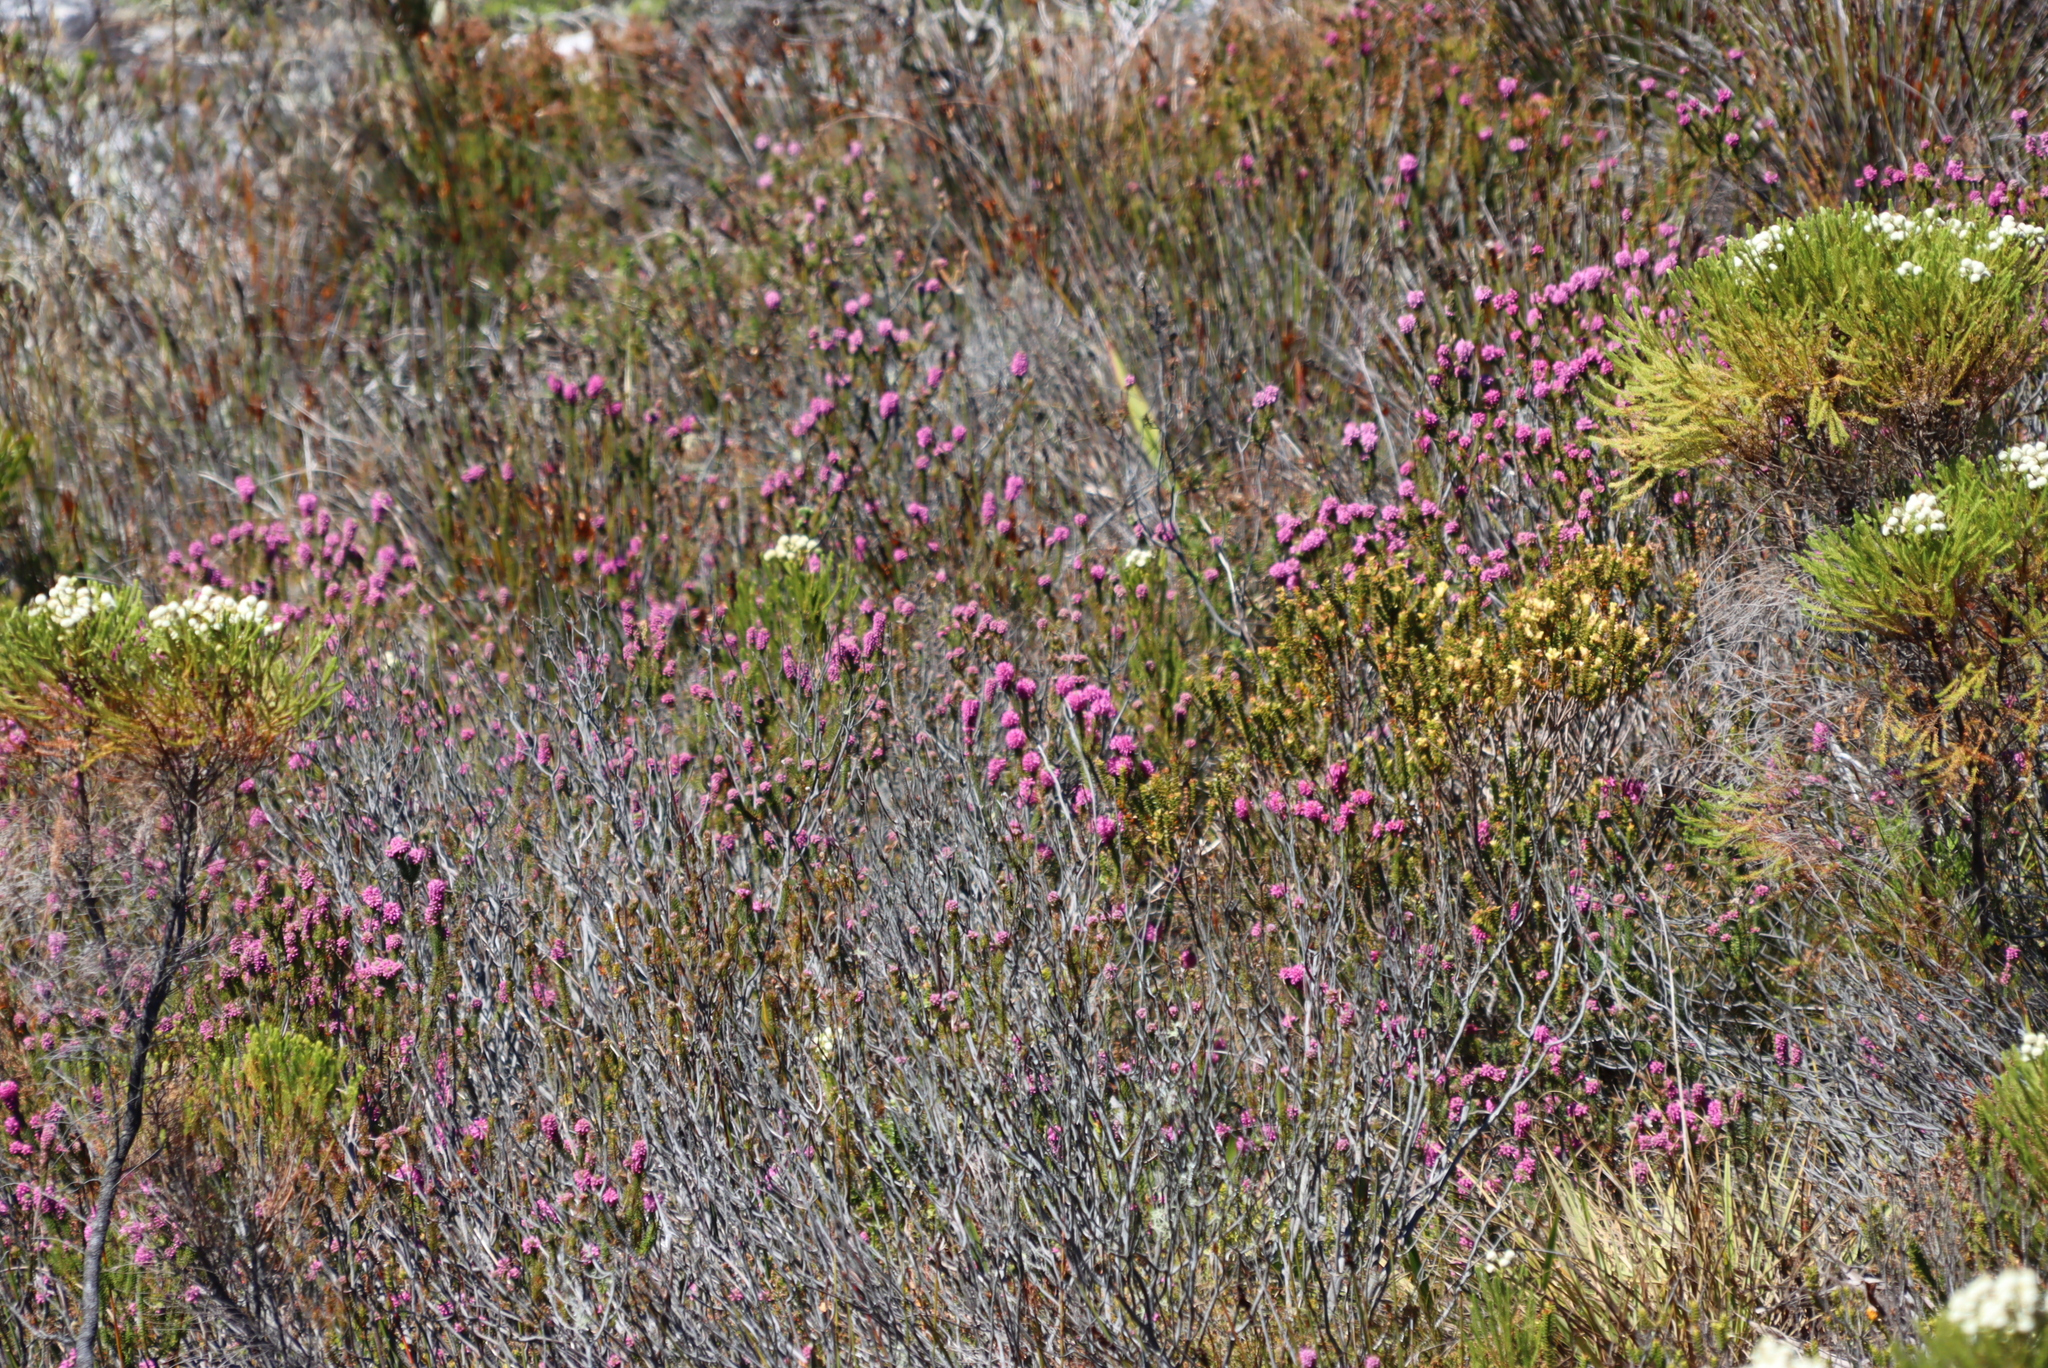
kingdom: Plantae
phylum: Tracheophyta
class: Magnoliopsida
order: Bruniales
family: Bruniaceae
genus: Berzelia
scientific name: Berzelia lanuginosa
